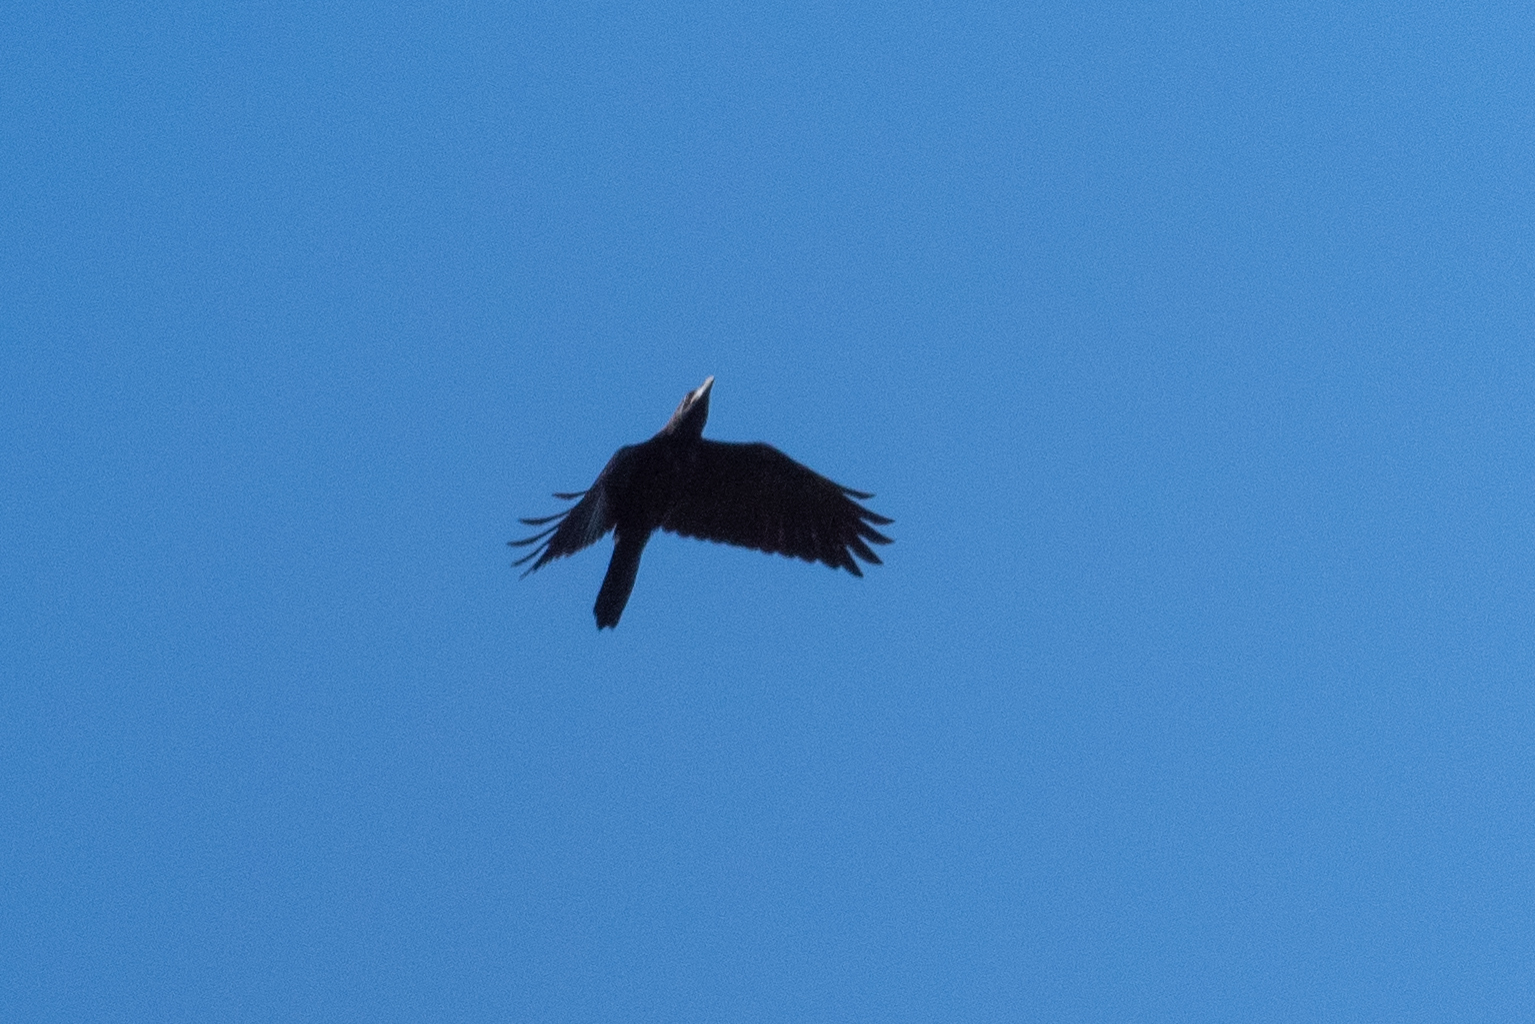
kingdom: Animalia
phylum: Chordata
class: Aves
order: Passeriformes
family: Corvidae
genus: Corvus
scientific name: Corvus corax
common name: Common raven
